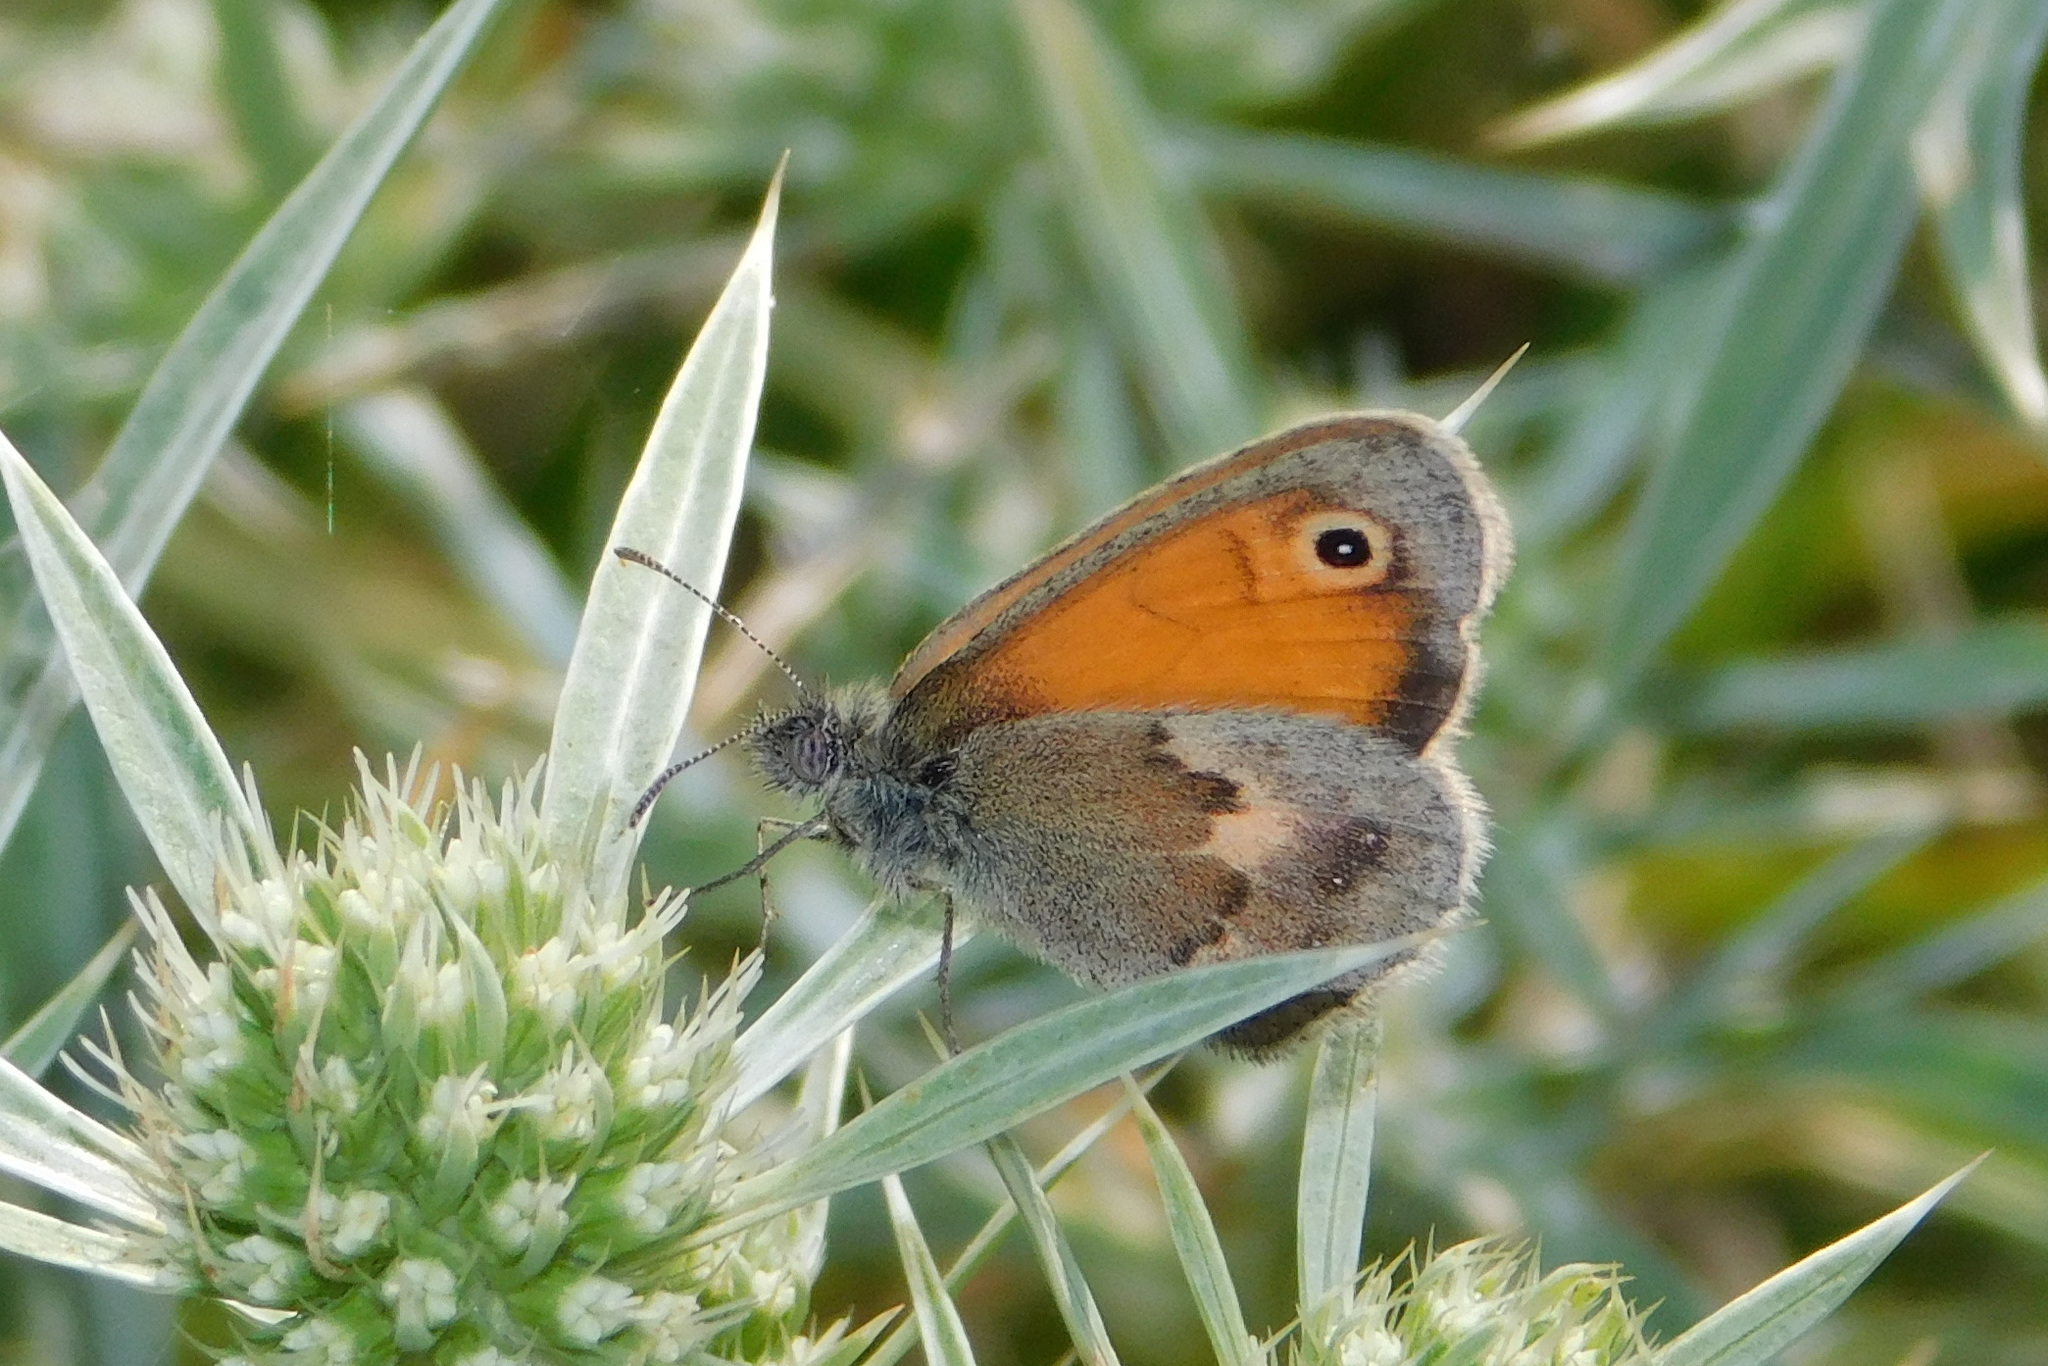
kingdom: Animalia
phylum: Arthropoda
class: Insecta
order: Lepidoptera
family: Nymphalidae
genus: Coenonympha
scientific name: Coenonympha pamphilus
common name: Small heath
